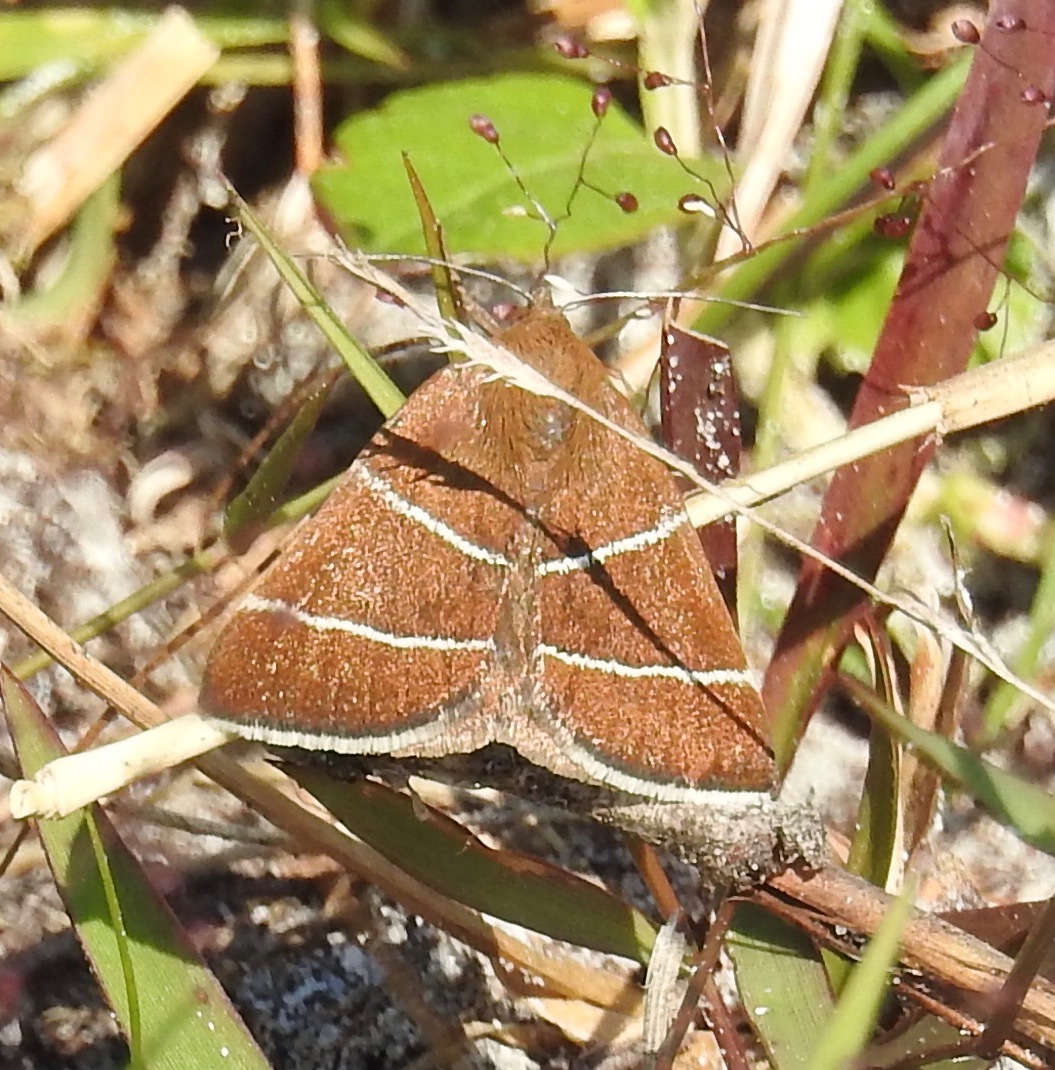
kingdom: Animalia
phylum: Arthropoda
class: Insecta
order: Lepidoptera
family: Erebidae
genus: Argyrostrotis
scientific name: Argyrostrotis quadrifilaris
